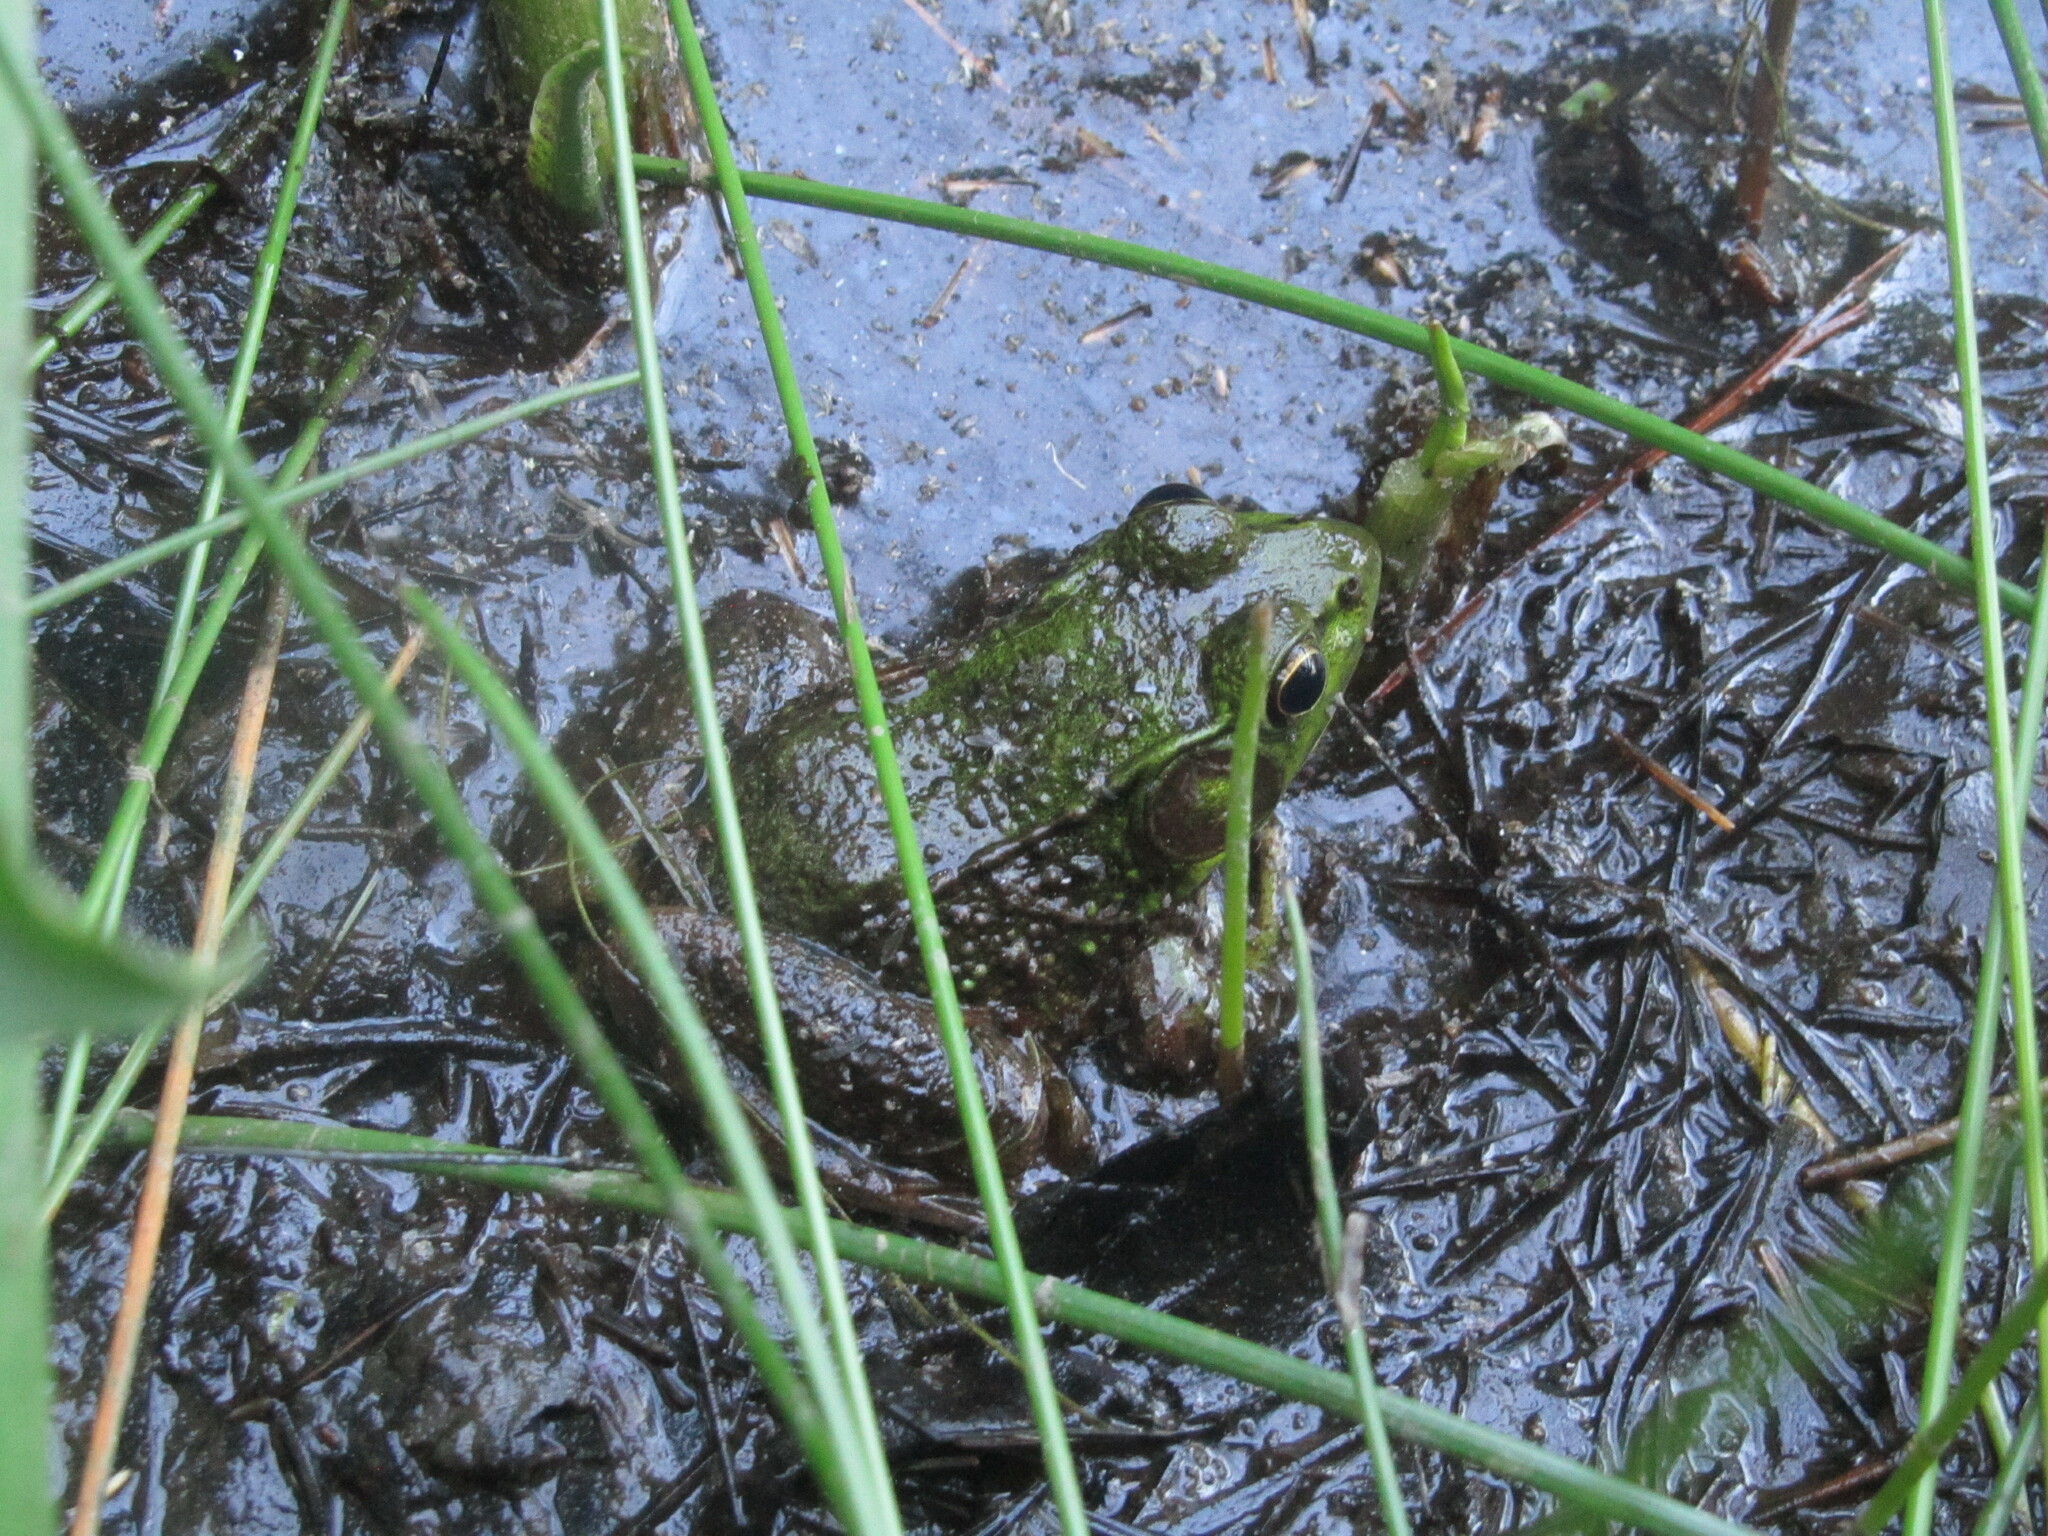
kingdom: Animalia
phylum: Chordata
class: Amphibia
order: Anura
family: Ranidae
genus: Lithobates
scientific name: Lithobates clamitans
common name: Green frog
